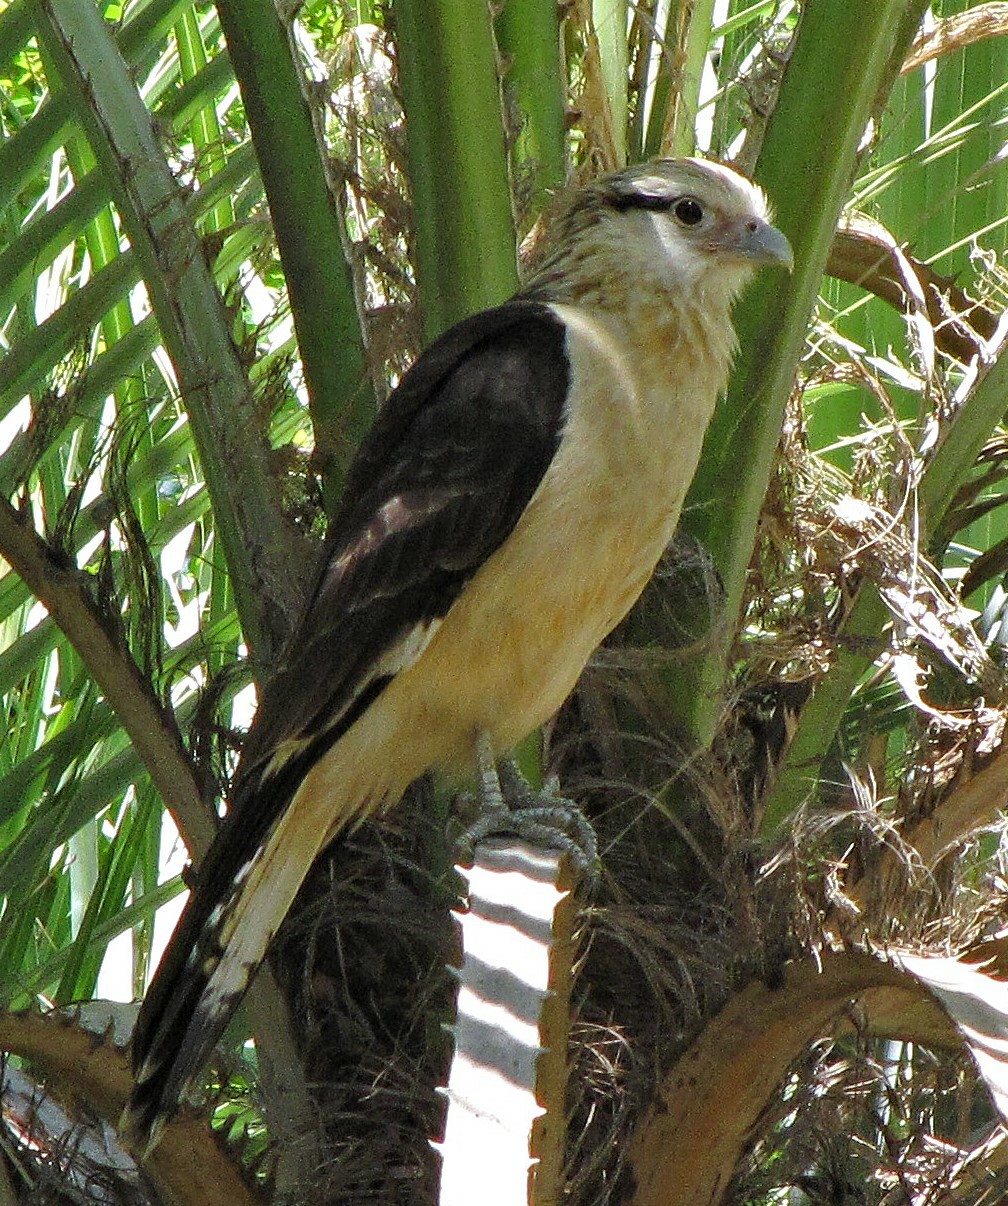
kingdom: Animalia
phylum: Chordata
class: Aves
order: Falconiformes
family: Falconidae
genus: Daptrius
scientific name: Daptrius
